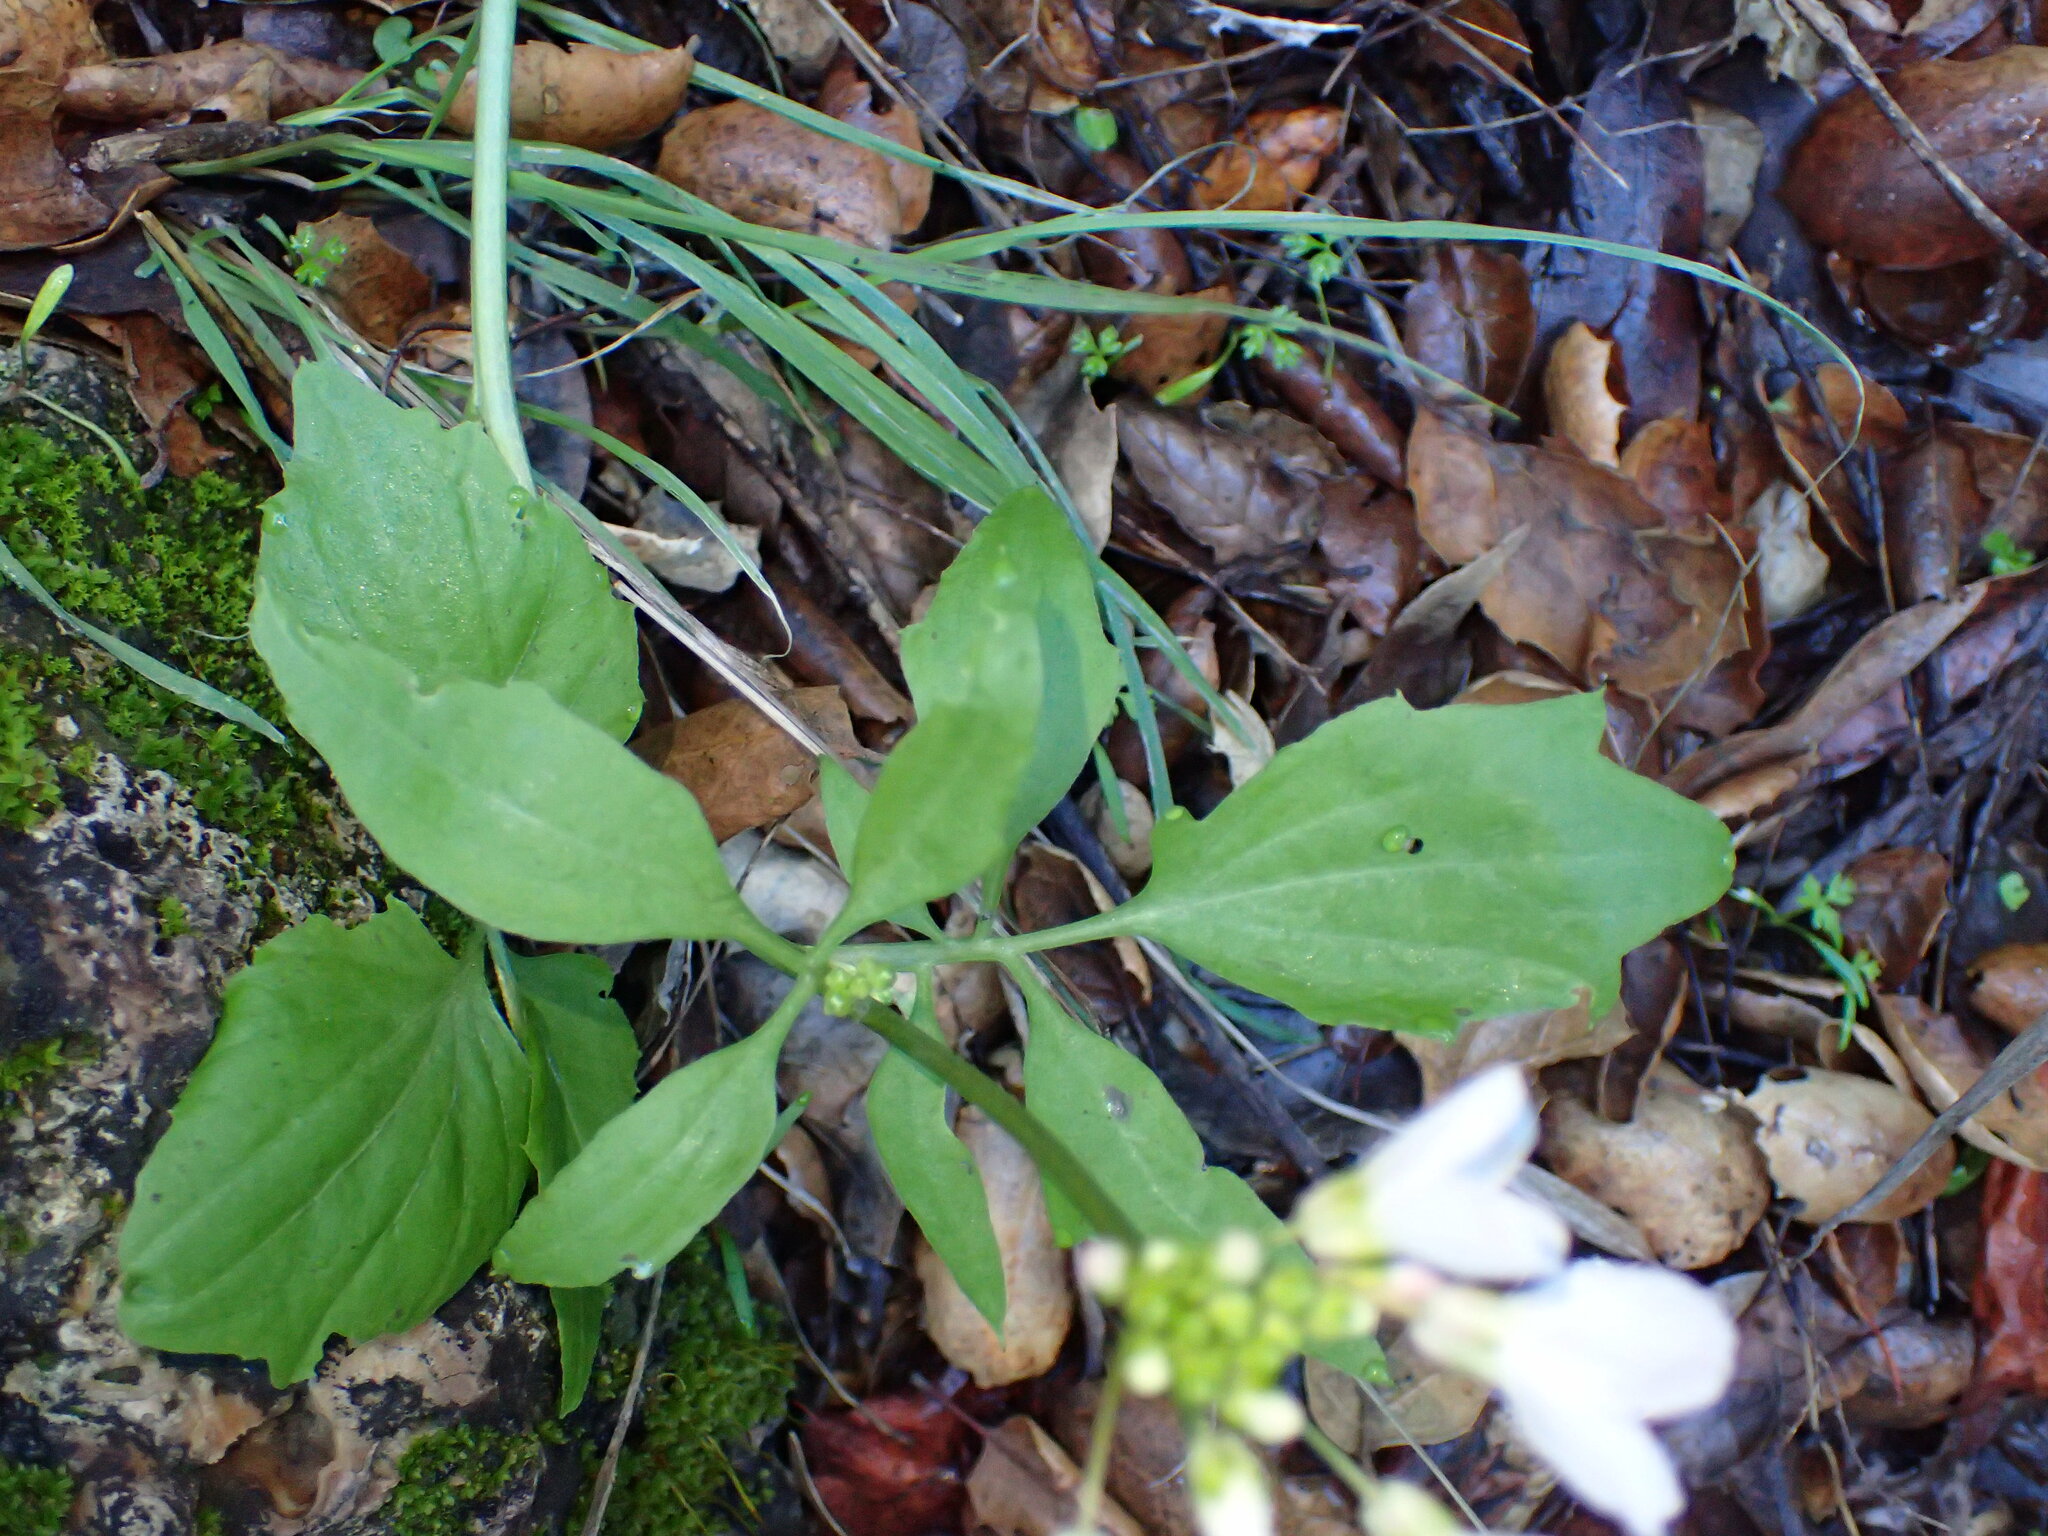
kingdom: Plantae
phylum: Tracheophyta
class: Magnoliopsida
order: Brassicales
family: Brassicaceae
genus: Cardamine
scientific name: Cardamine californica
